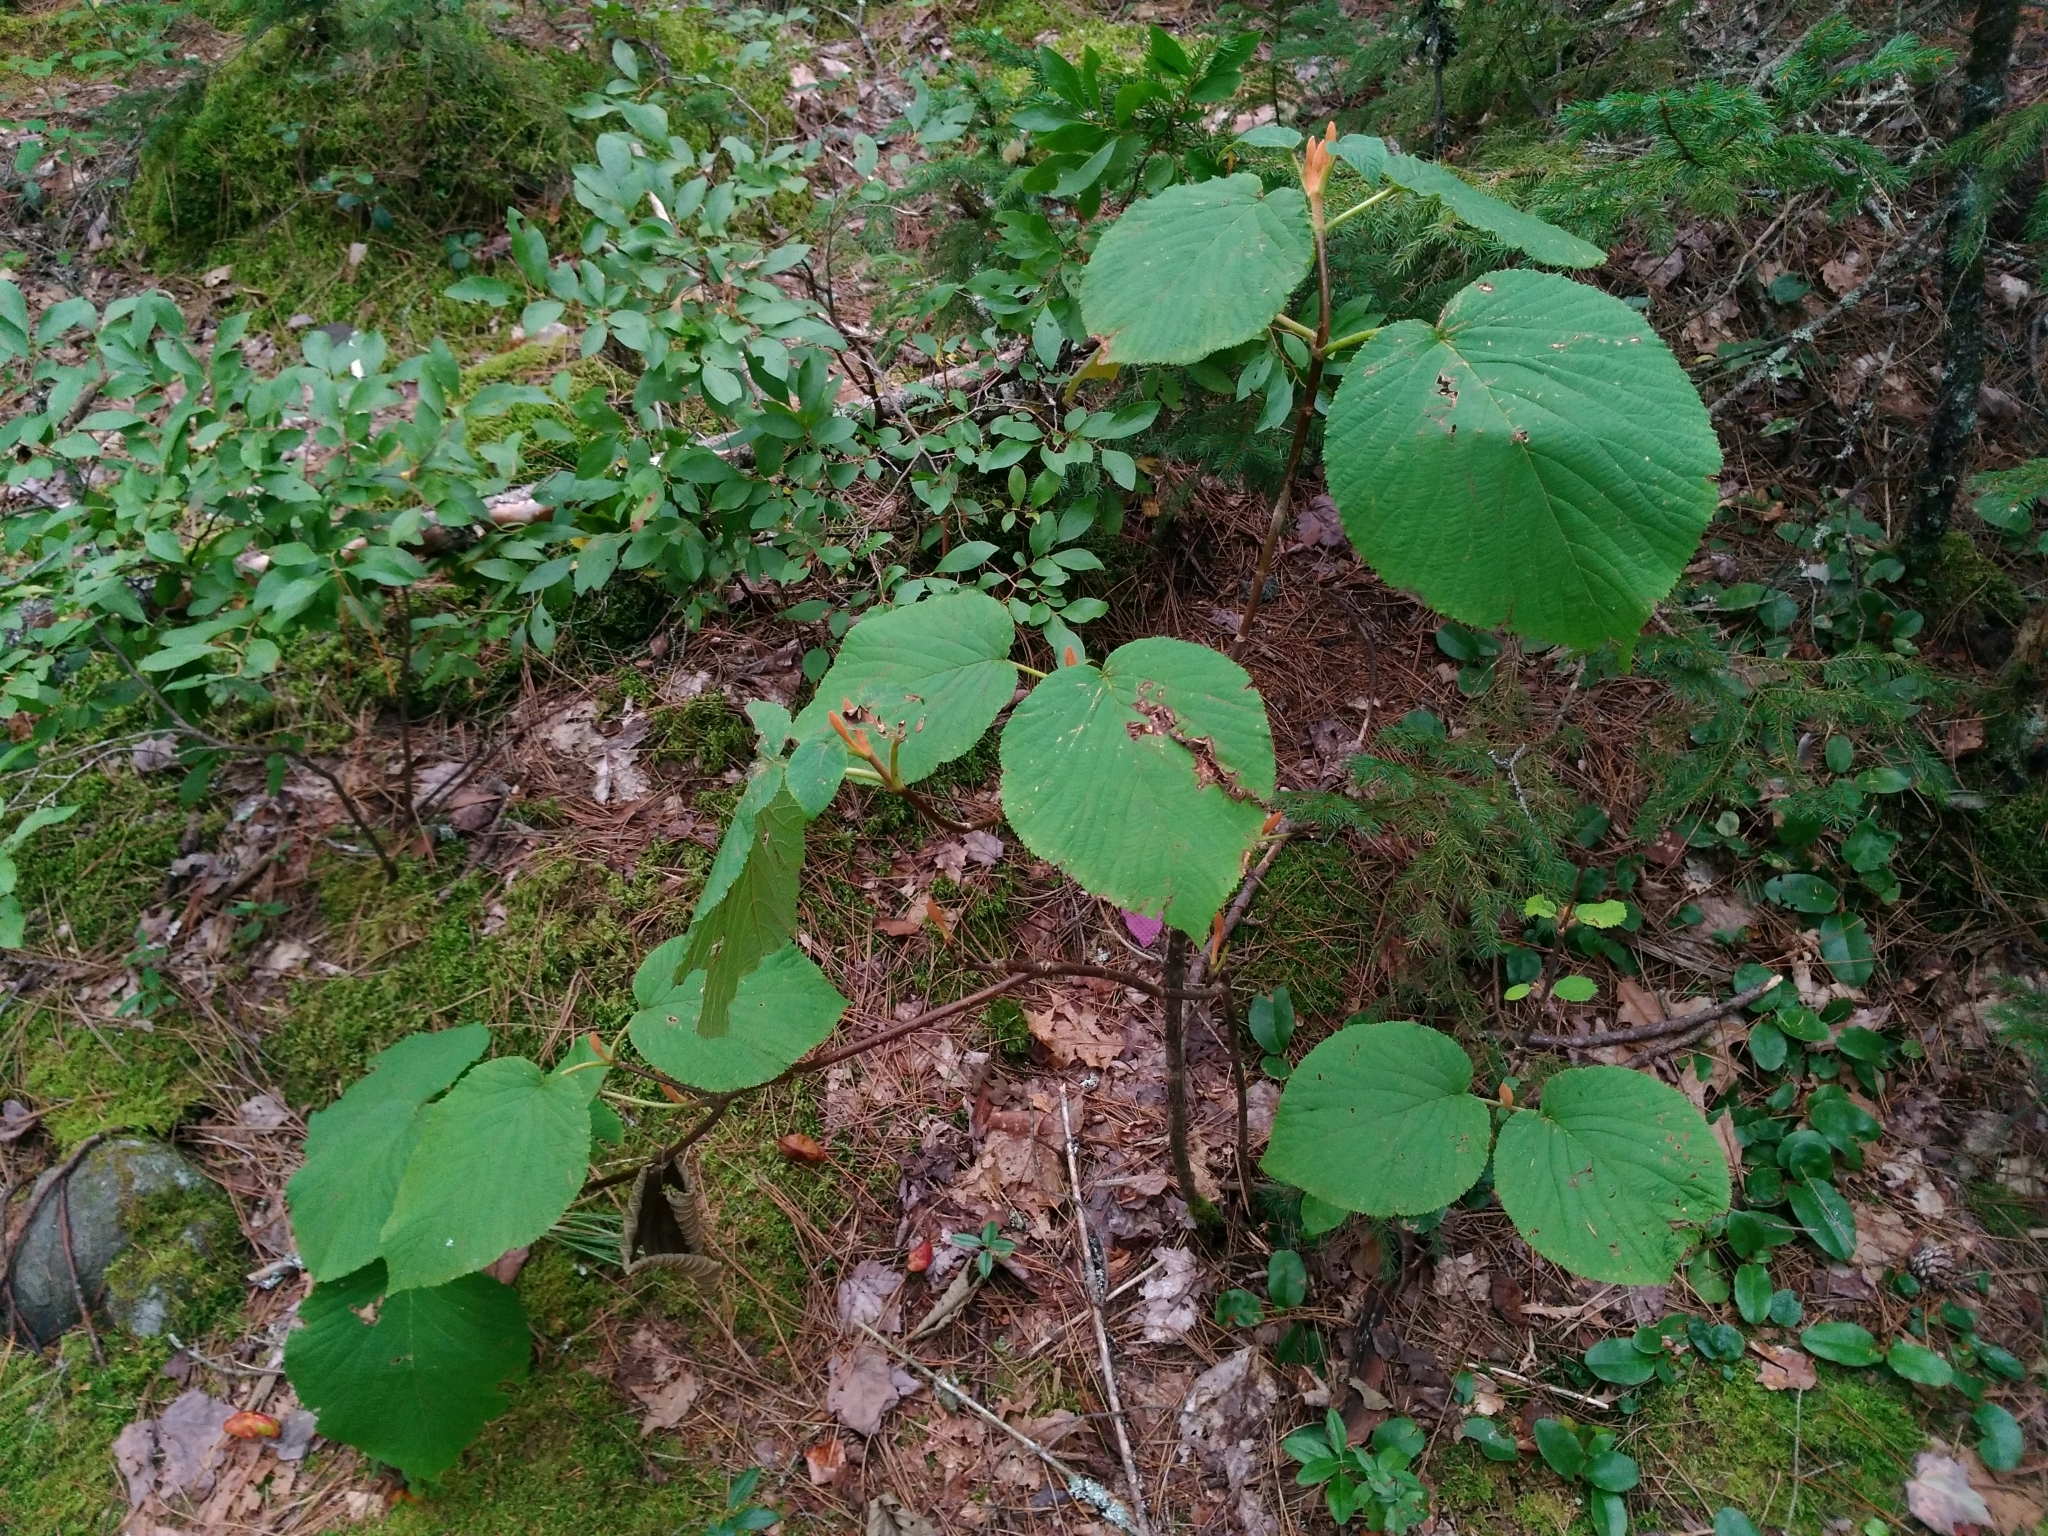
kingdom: Plantae
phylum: Tracheophyta
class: Magnoliopsida
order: Dipsacales
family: Viburnaceae
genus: Viburnum
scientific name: Viburnum lantanoides
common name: Hobblebush
